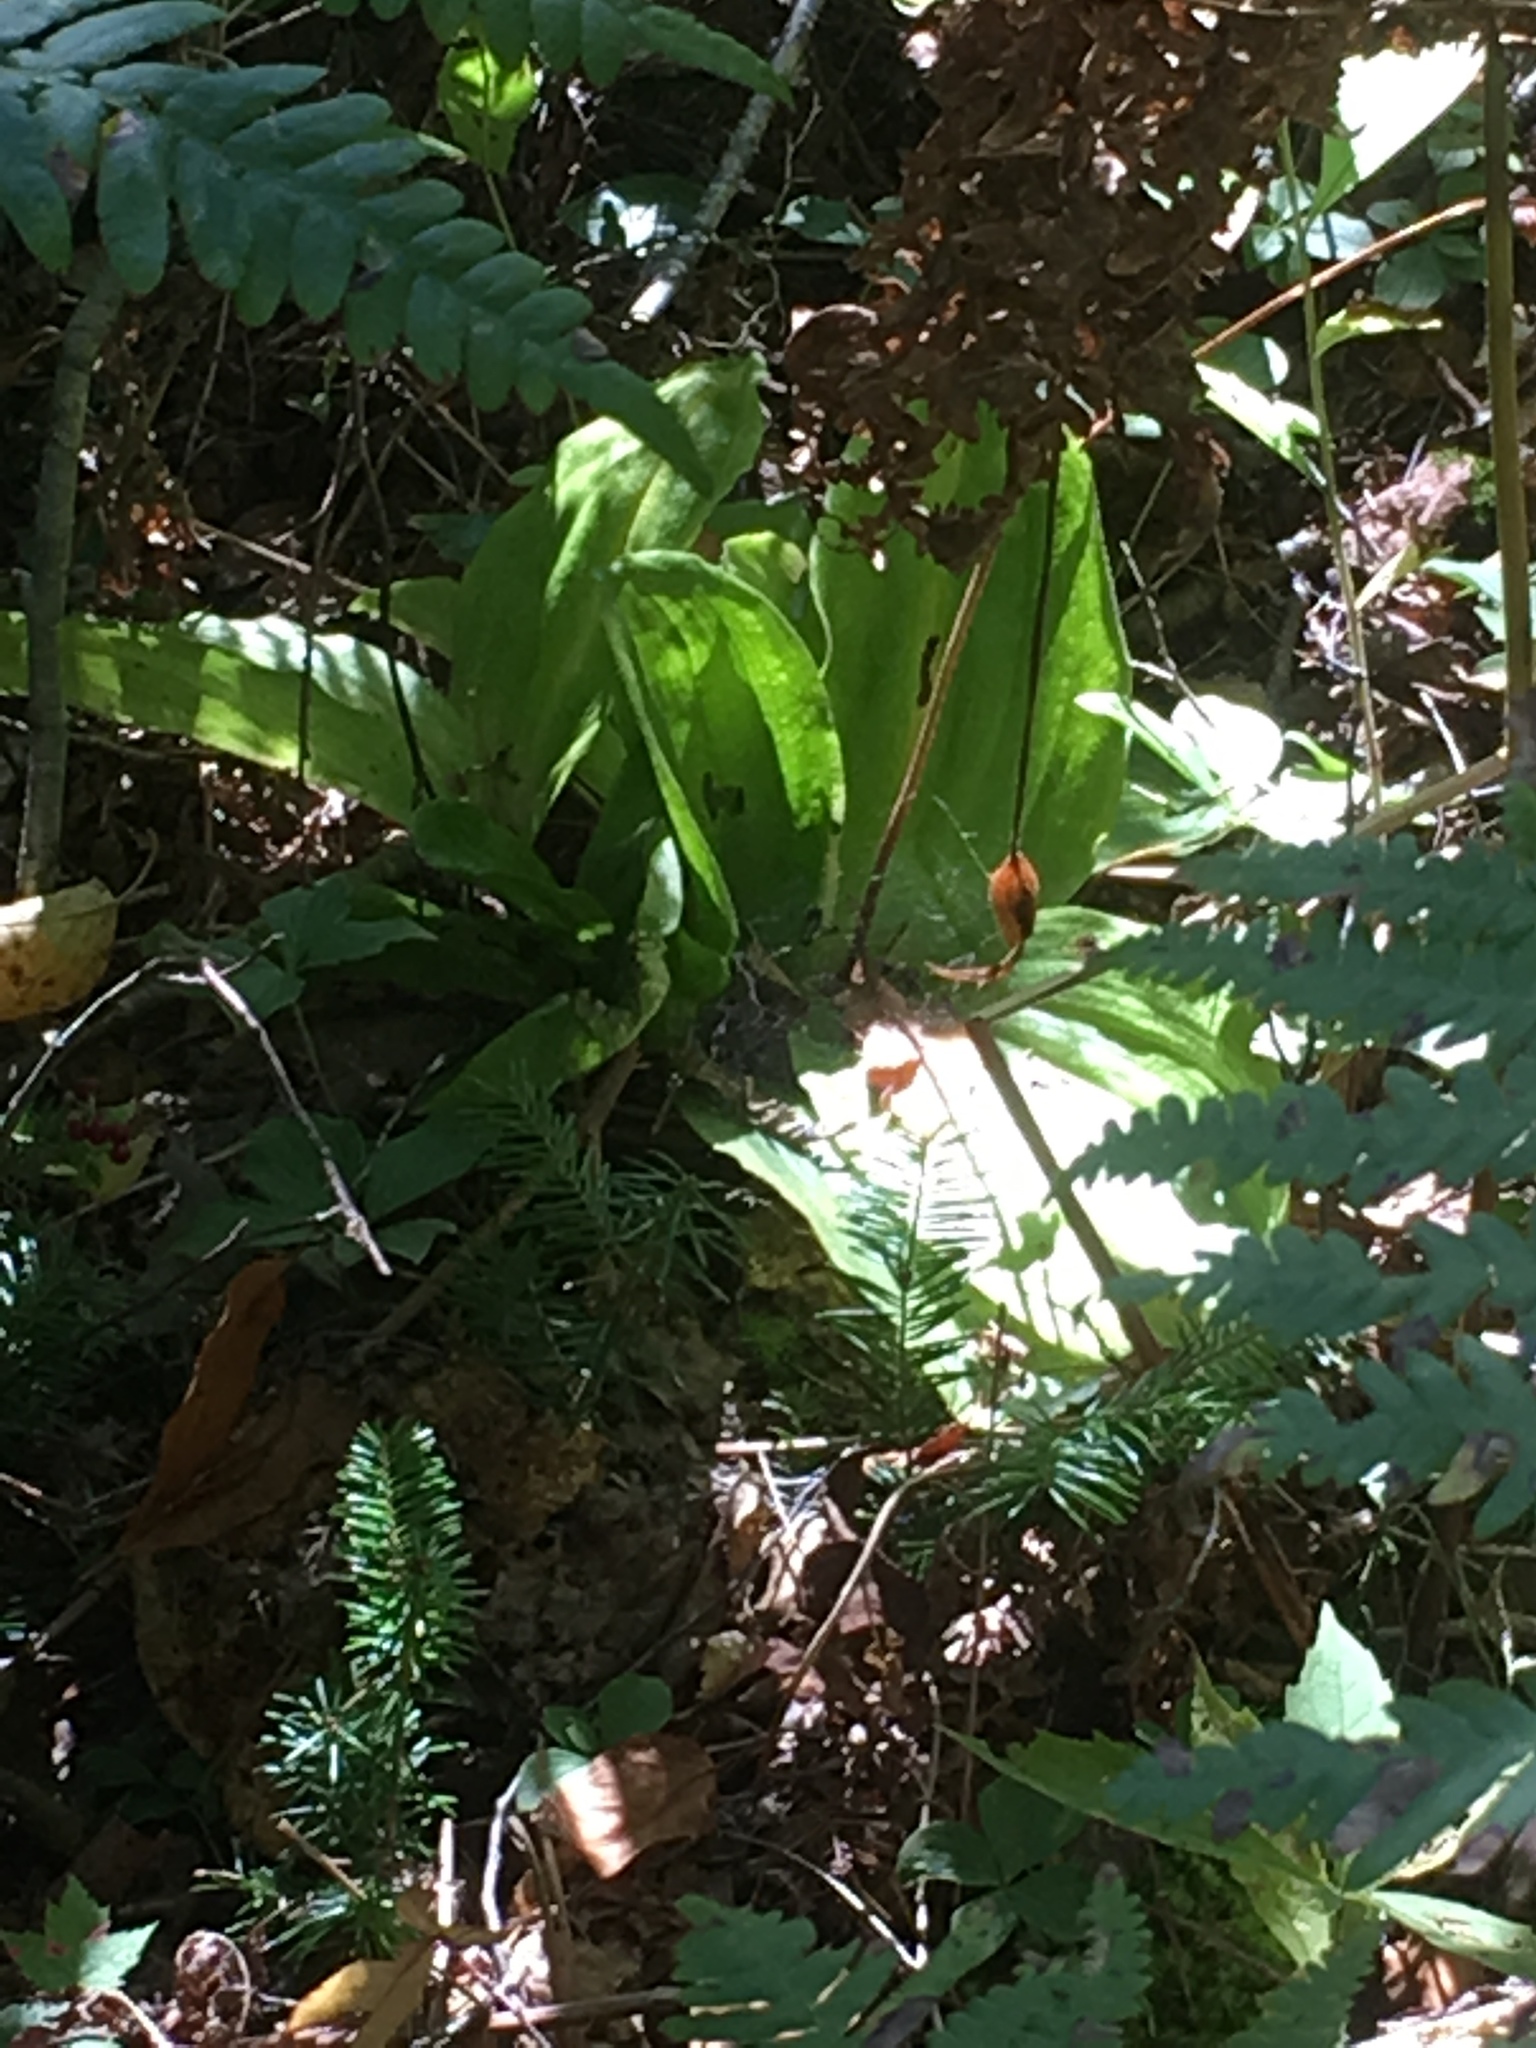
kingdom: Plantae
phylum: Tracheophyta
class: Liliopsida
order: Asparagales
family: Orchidaceae
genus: Cypripedium
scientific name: Cypripedium acaule
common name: Pink lady's-slipper
